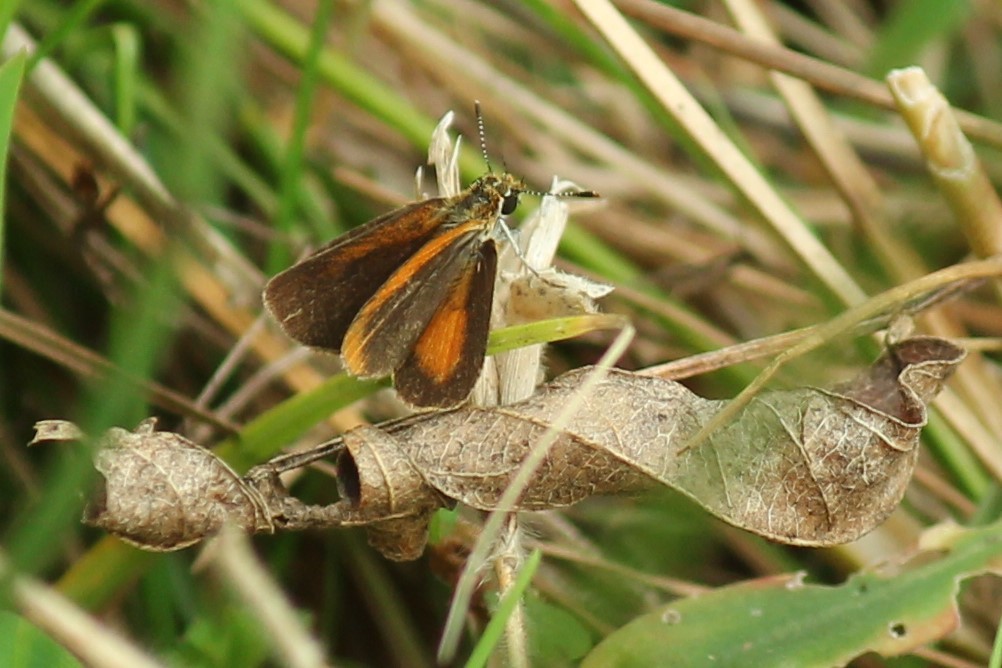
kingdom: Animalia
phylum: Arthropoda
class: Insecta
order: Lepidoptera
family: Hesperiidae
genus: Ancyloxypha
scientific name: Ancyloxypha numitor
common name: Least skipper
